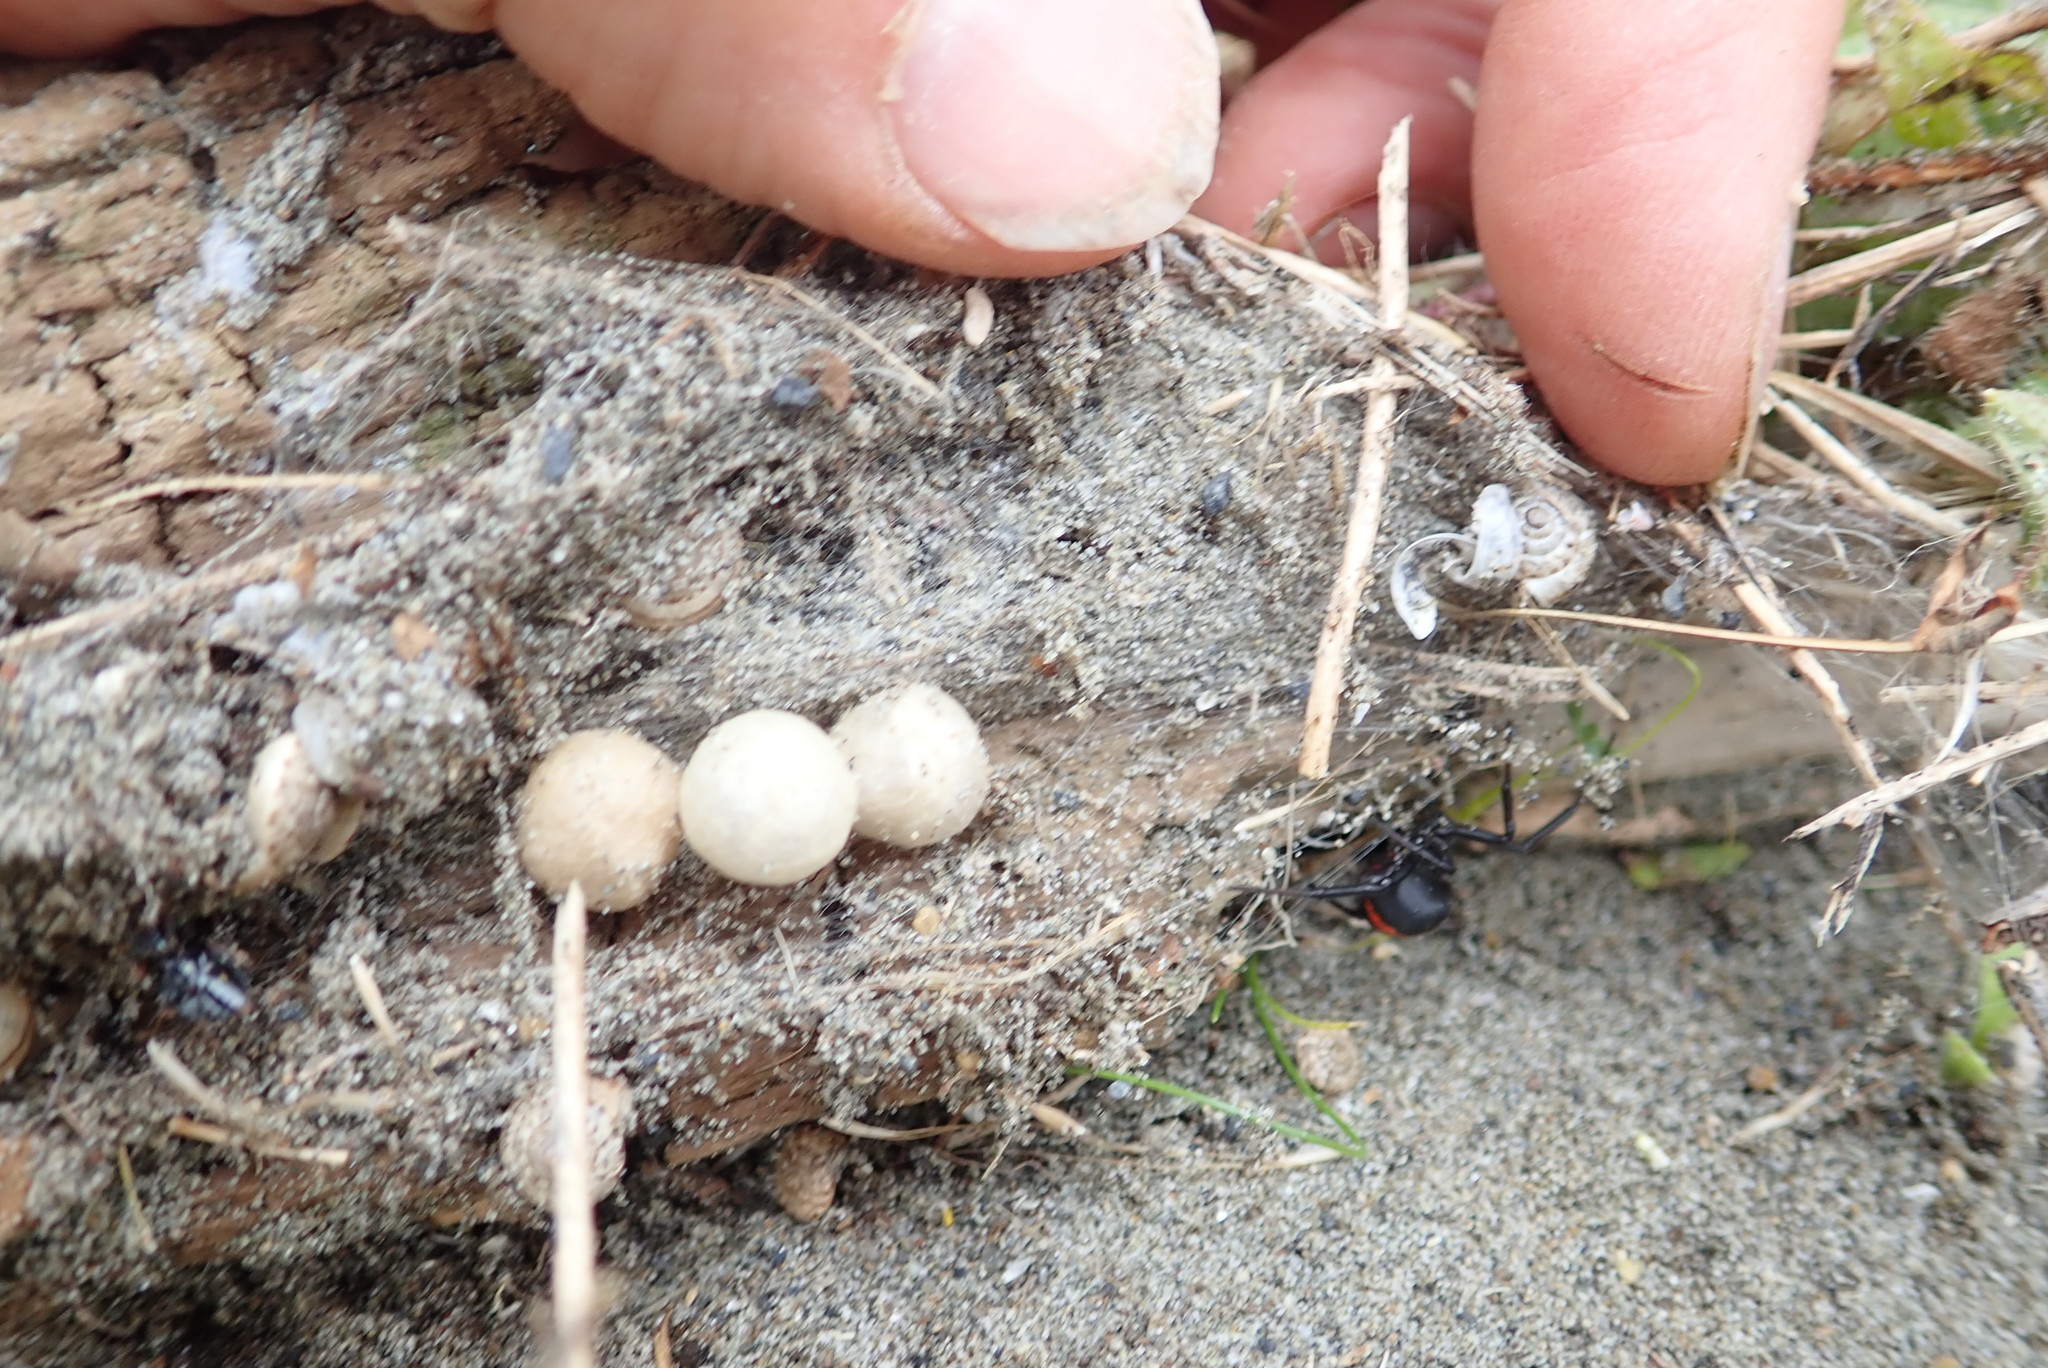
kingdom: Animalia
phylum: Arthropoda
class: Arachnida
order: Araneae
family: Theridiidae
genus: Latrodectus
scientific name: Latrodectus katipo
